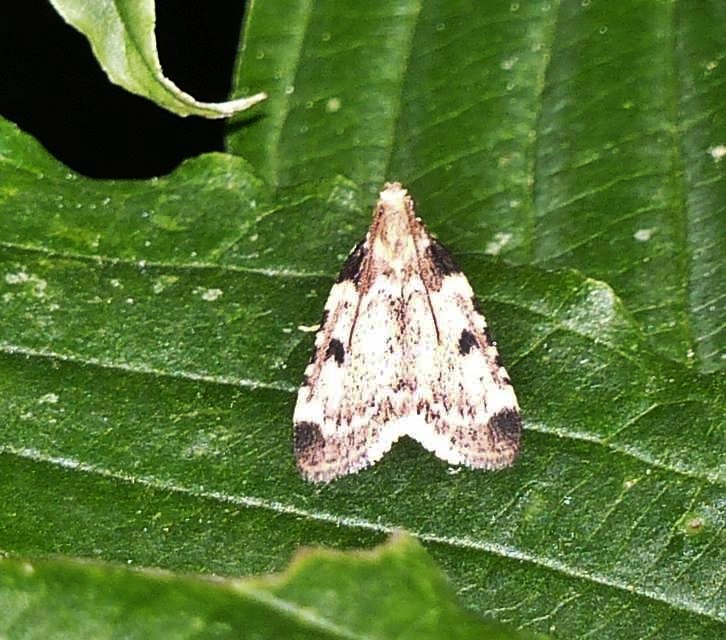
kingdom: Animalia
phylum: Arthropoda
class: Insecta
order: Lepidoptera
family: Pyralidae
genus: Aglossa
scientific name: Aglossa costiferalis
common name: Calico pyralid moth
